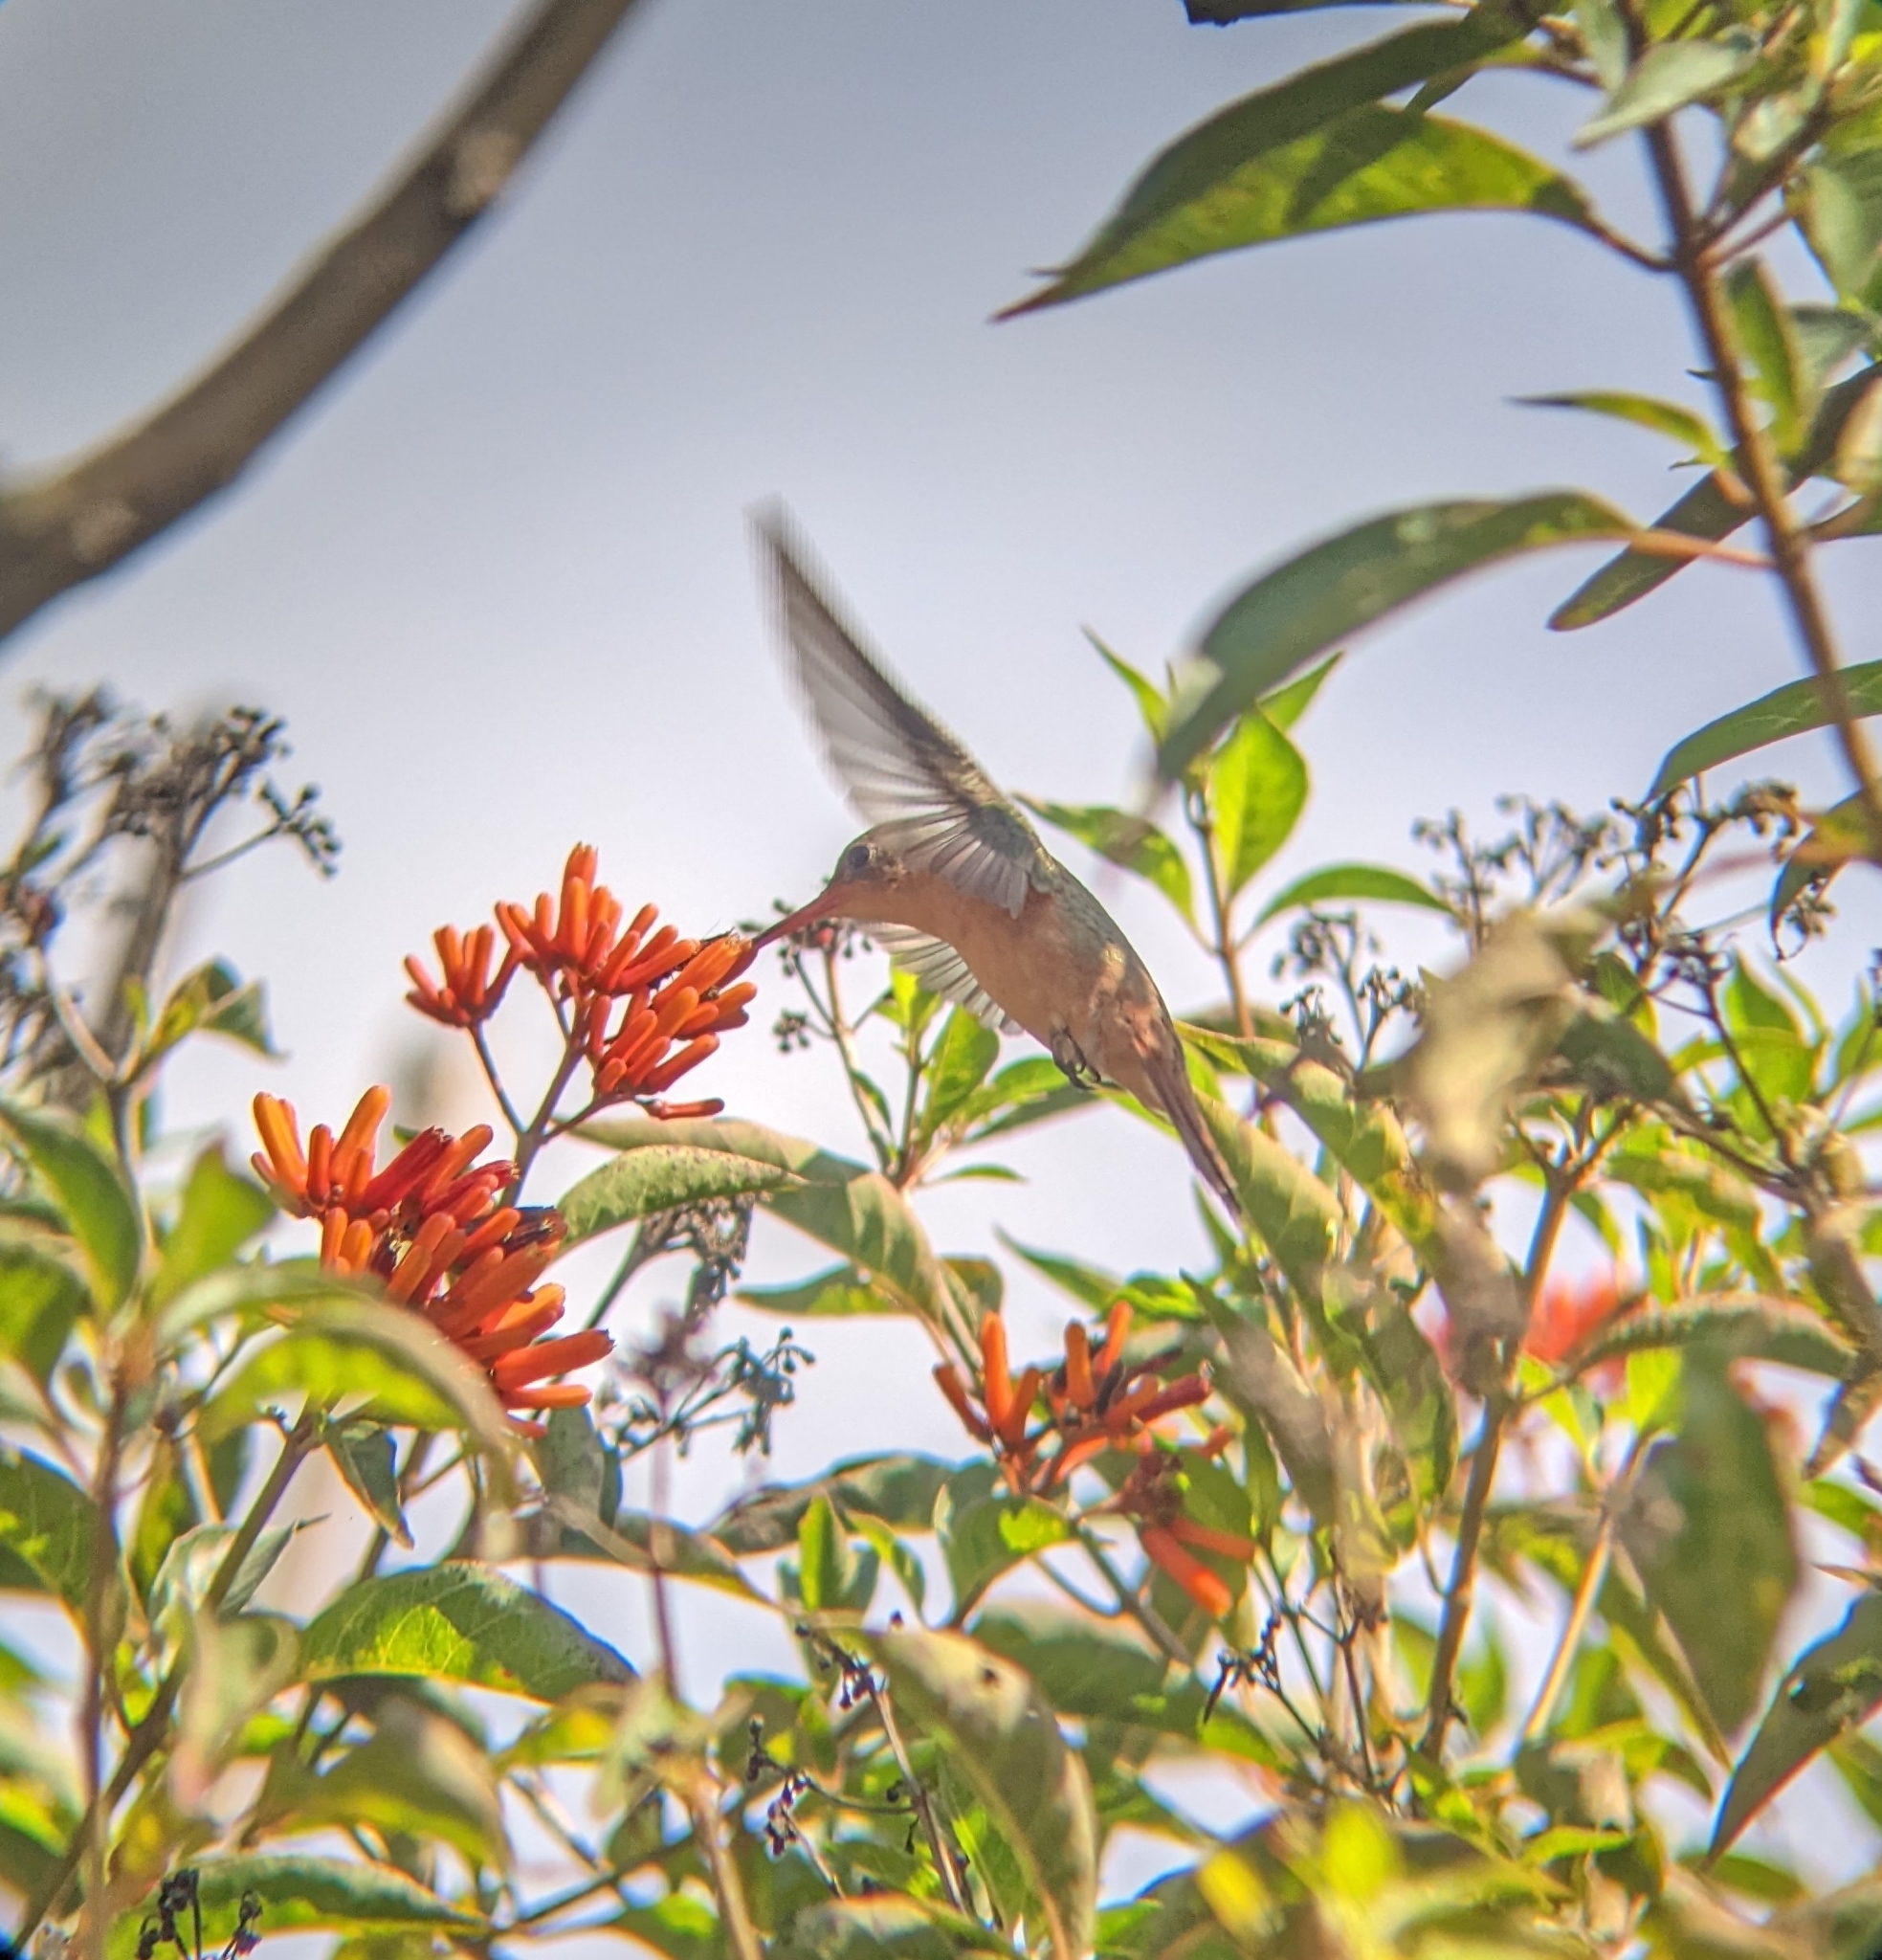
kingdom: Animalia
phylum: Chordata
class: Aves
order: Apodiformes
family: Trochilidae
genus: Amazilia
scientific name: Amazilia rutila
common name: Cinnamon hummingbird
